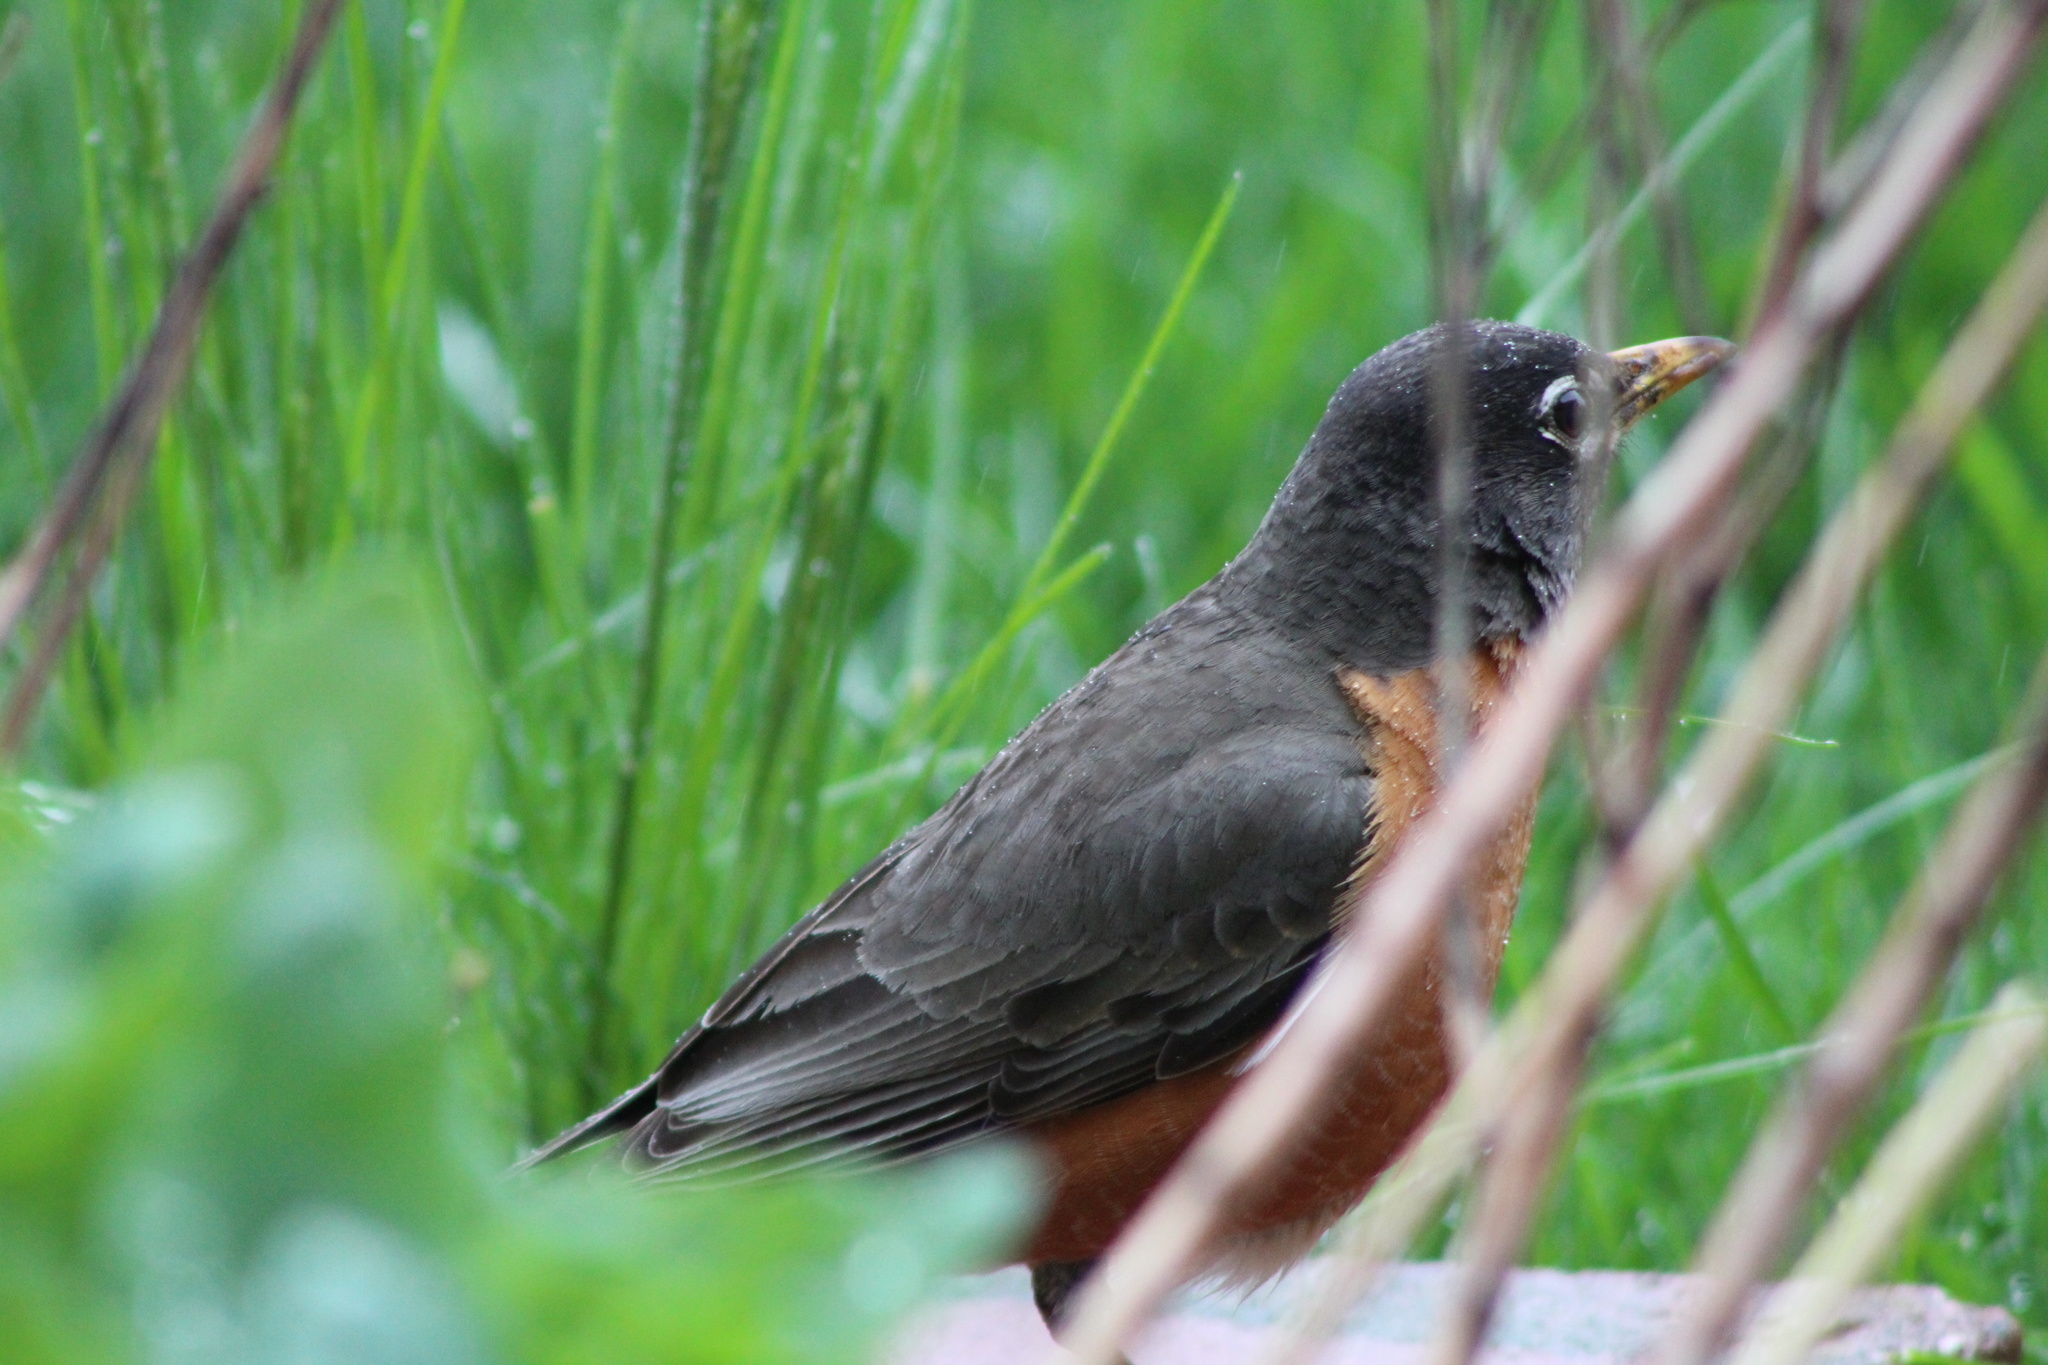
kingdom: Animalia
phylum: Chordata
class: Aves
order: Passeriformes
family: Turdidae
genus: Turdus
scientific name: Turdus migratorius
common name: American robin
